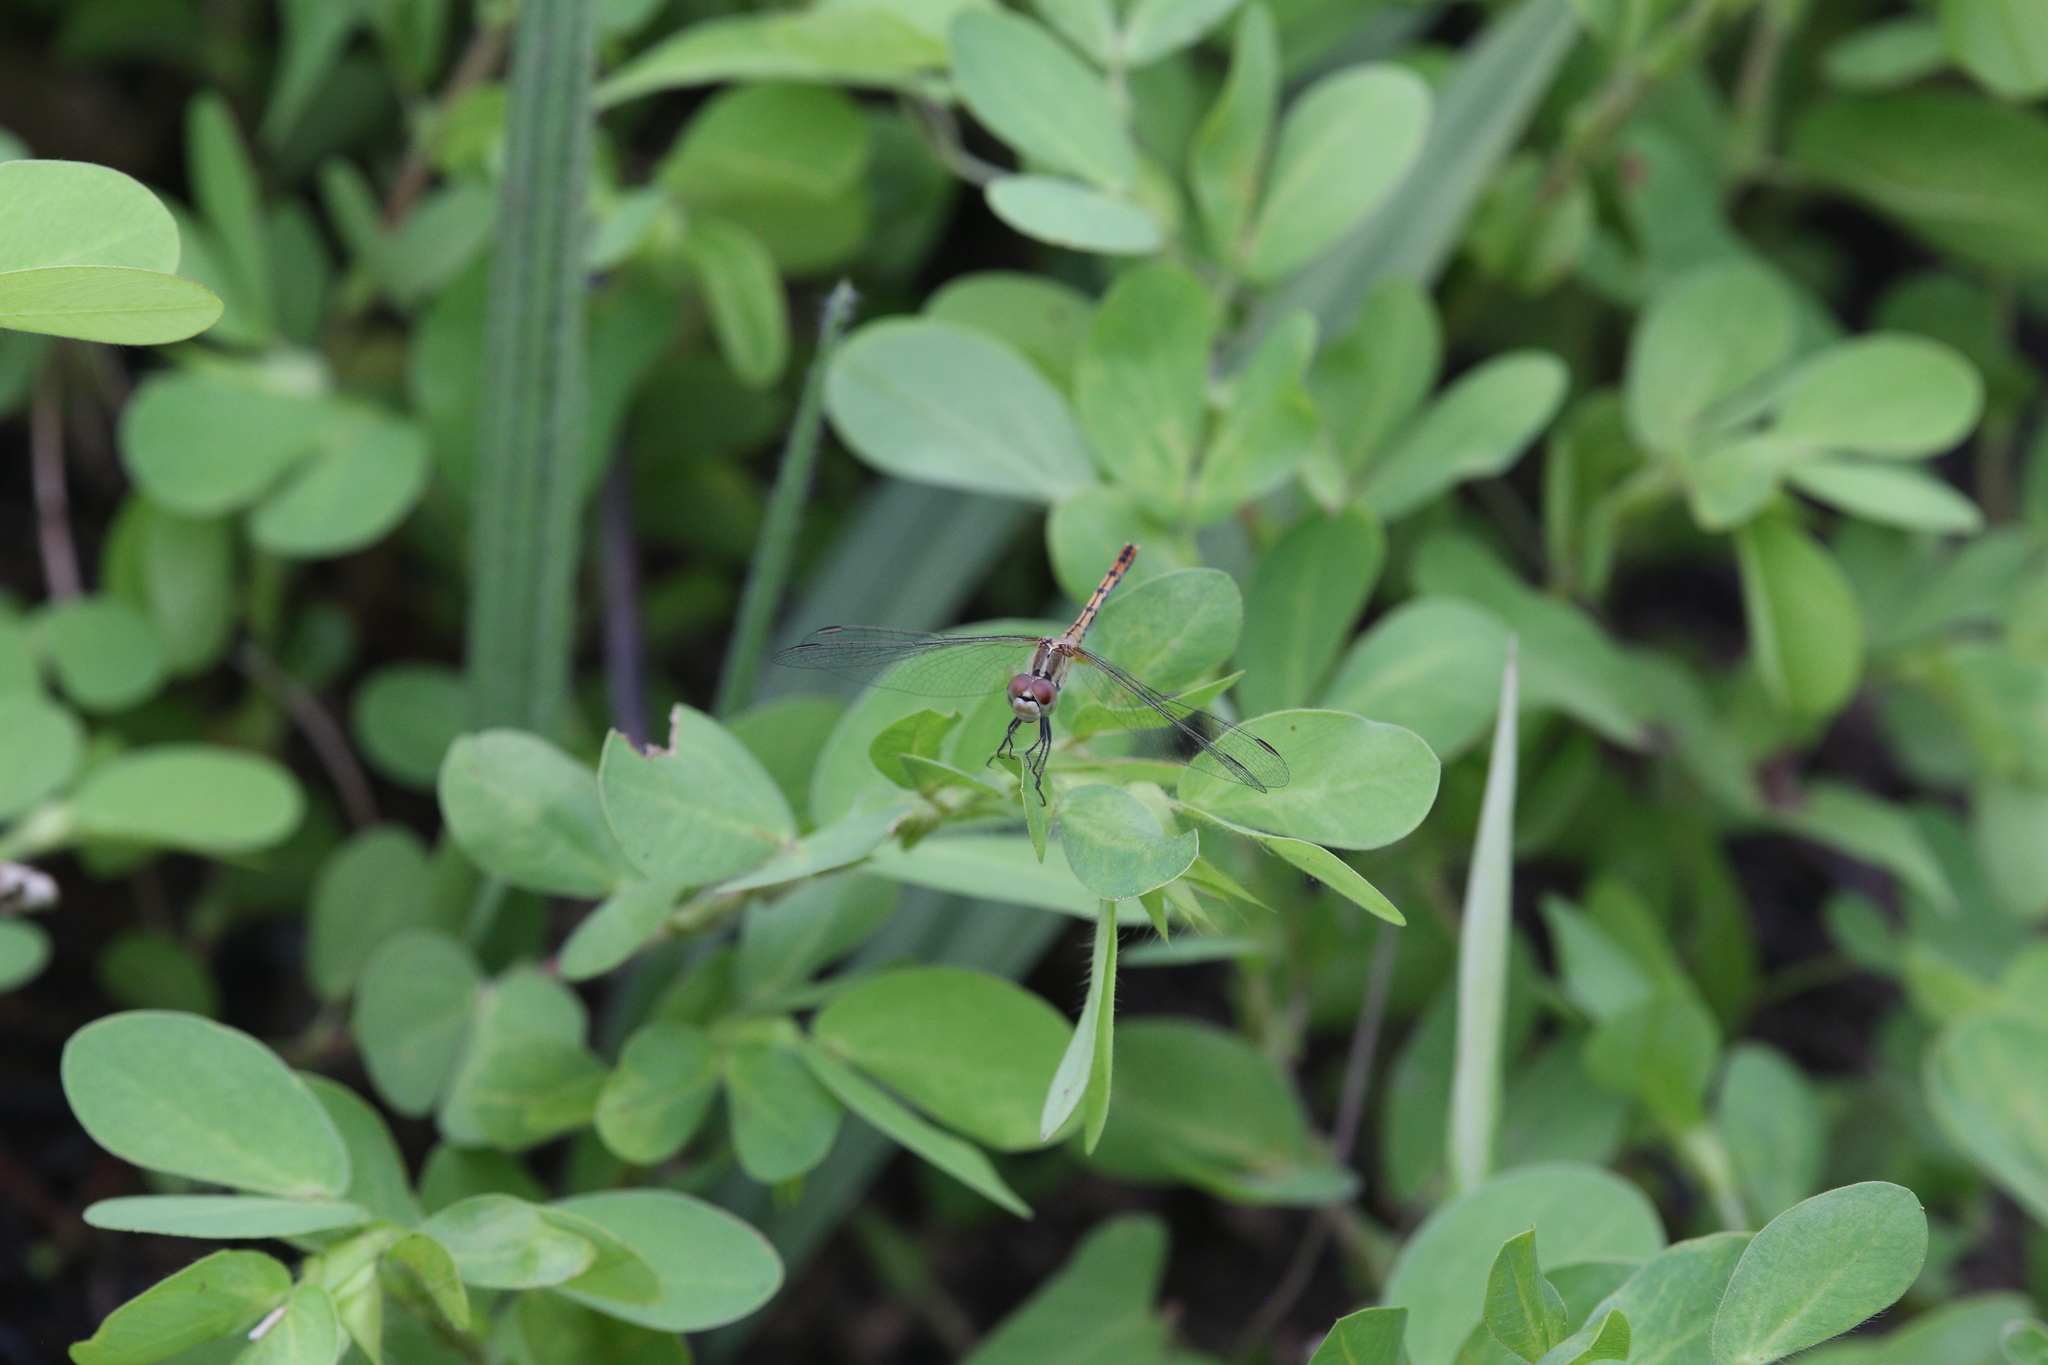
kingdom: Animalia
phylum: Arthropoda
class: Insecta
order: Odonata
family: Libellulidae
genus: Diplacodes
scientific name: Diplacodes bipunctata
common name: Red percher dragonfly
